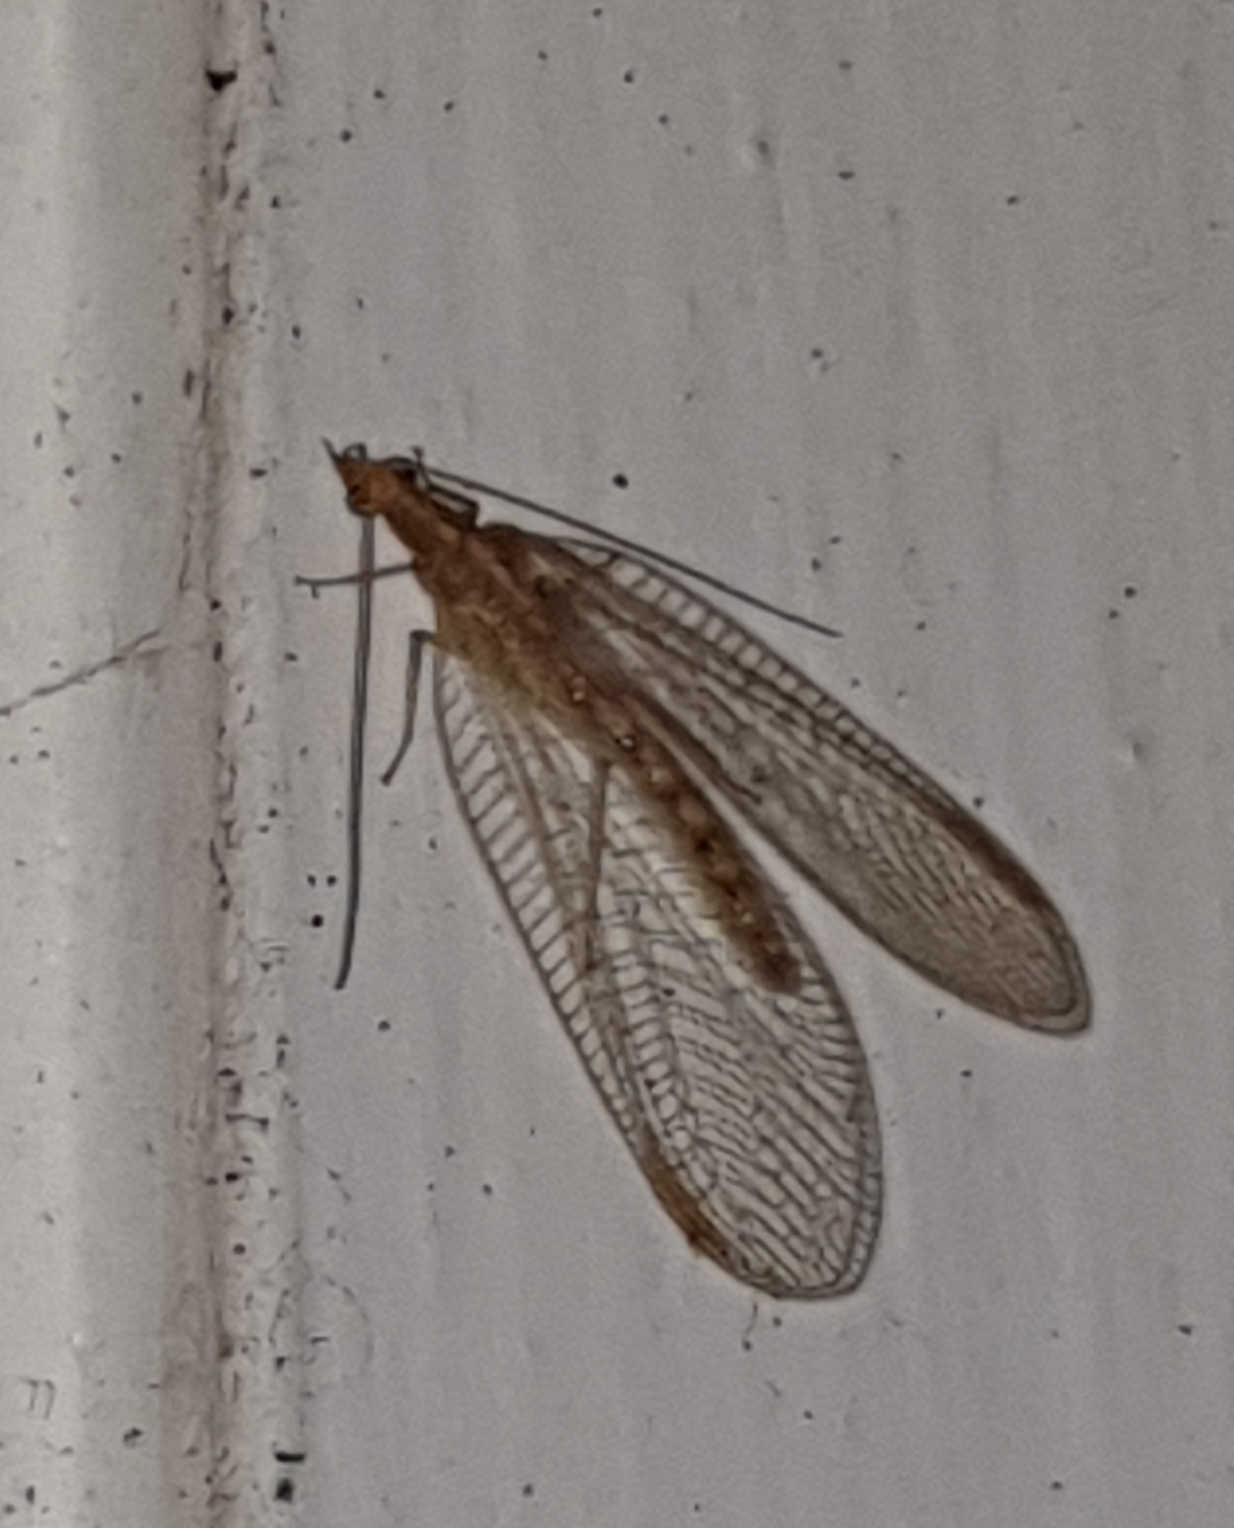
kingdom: Animalia
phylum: Arthropoda
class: Insecta
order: Neuroptera
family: Chrysopidae
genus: Chrysoperla
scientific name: Chrysoperla
